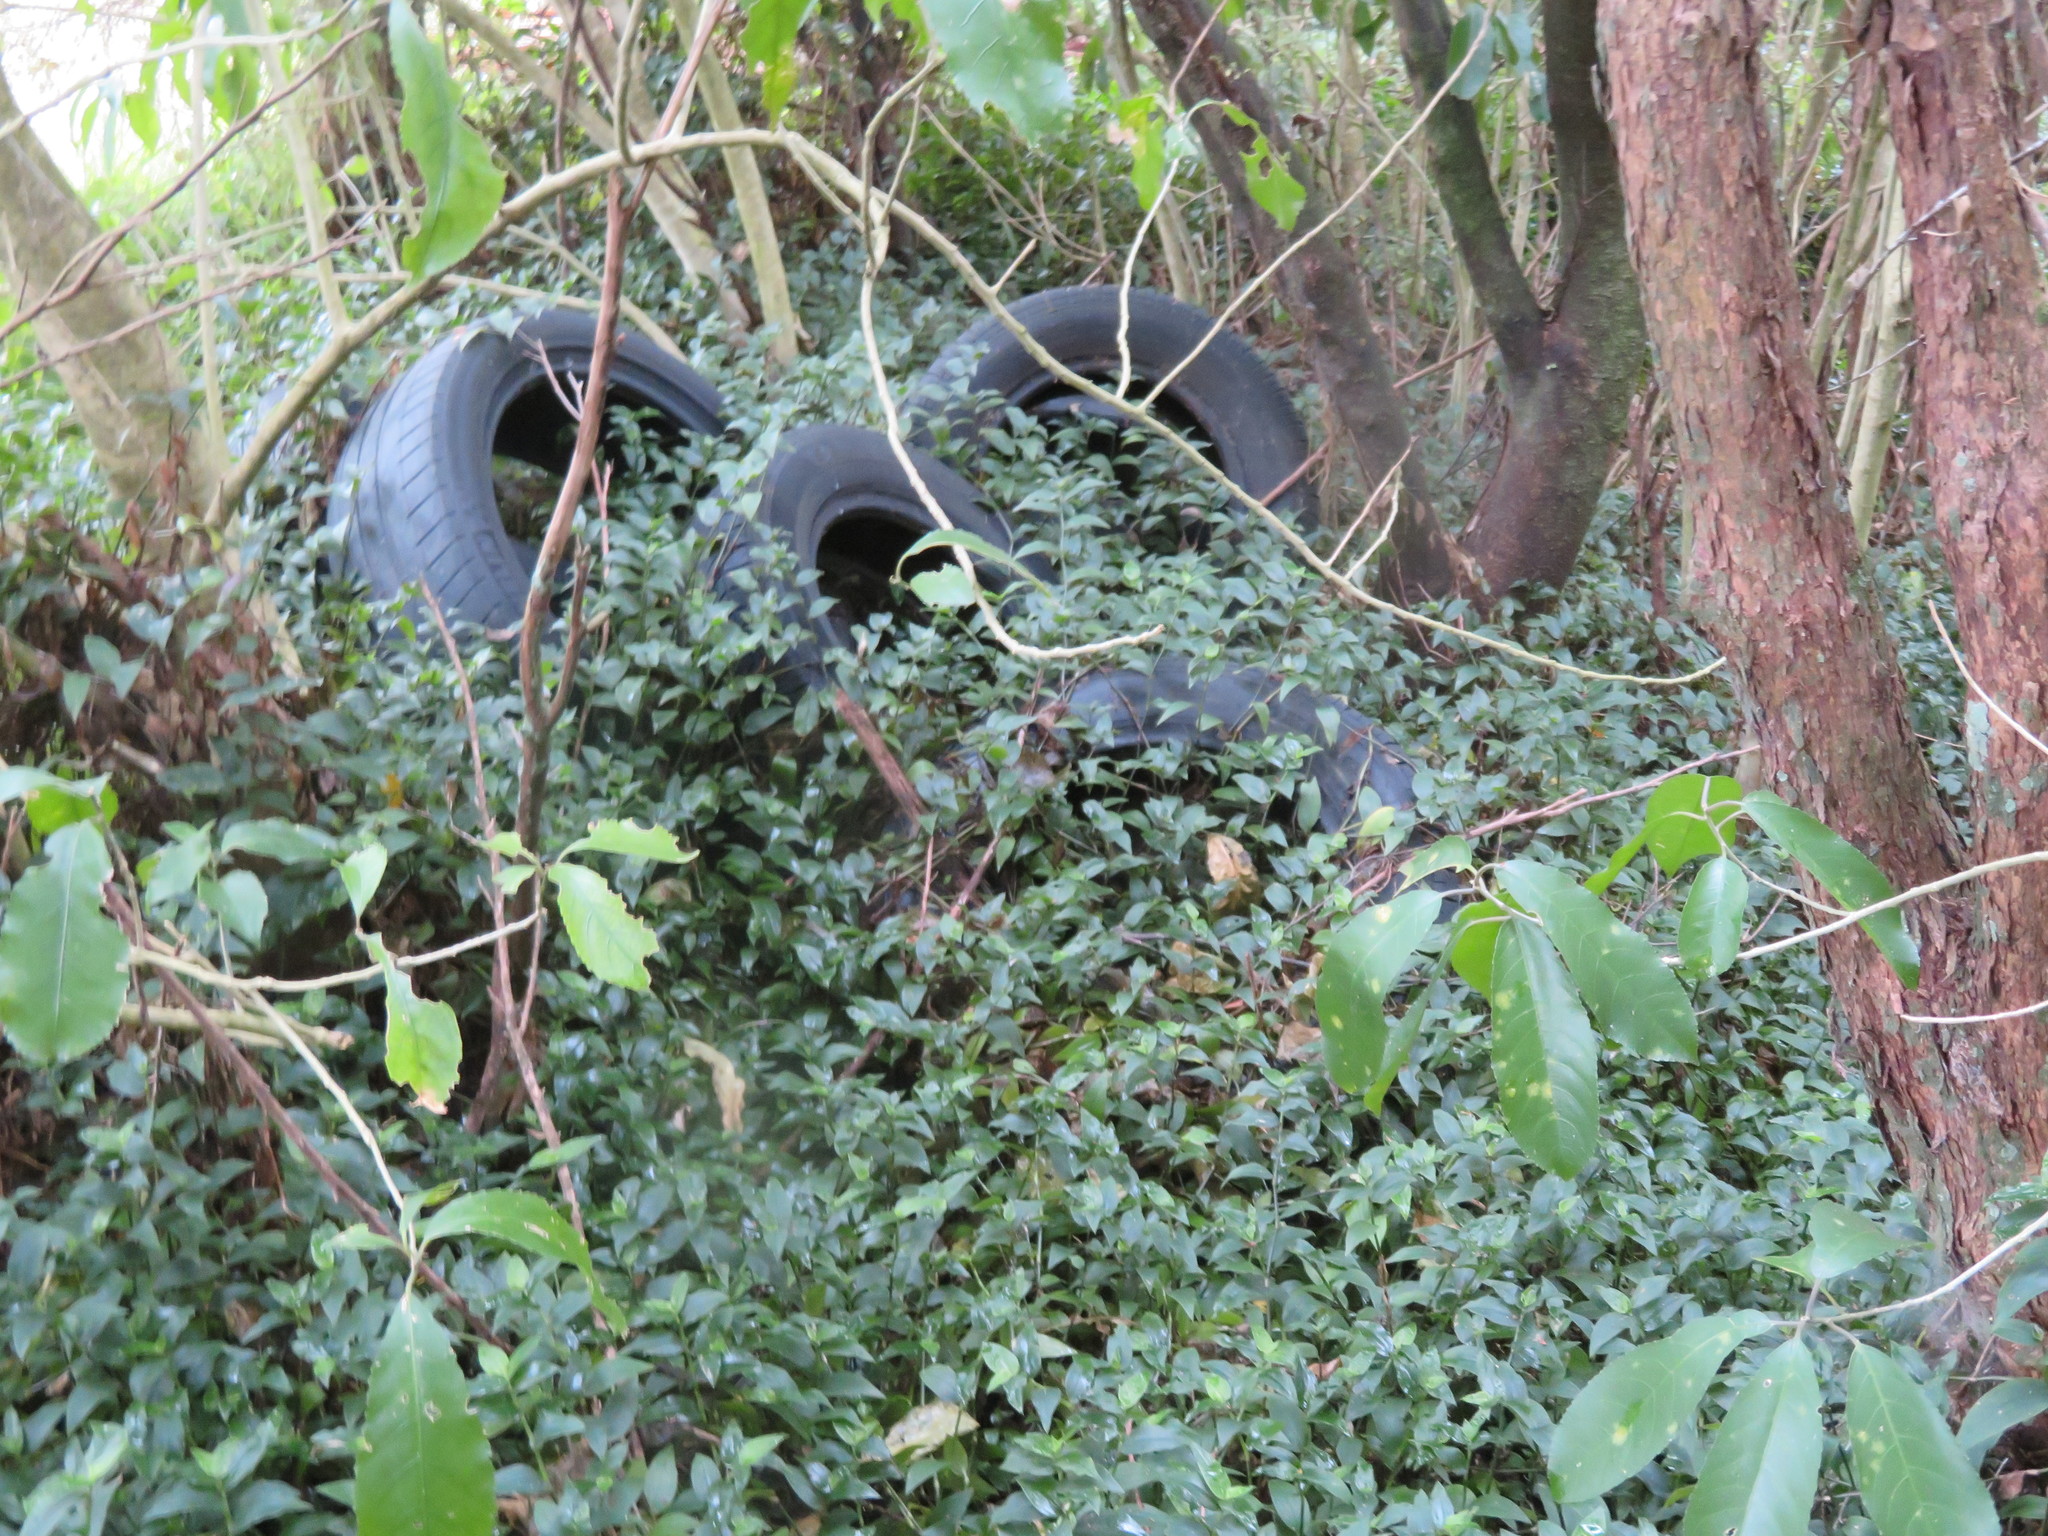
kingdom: Plantae
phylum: Tracheophyta
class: Magnoliopsida
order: Malpighiales
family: Violaceae
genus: Melicytus
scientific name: Melicytus ramiflorus
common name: Mahoe
